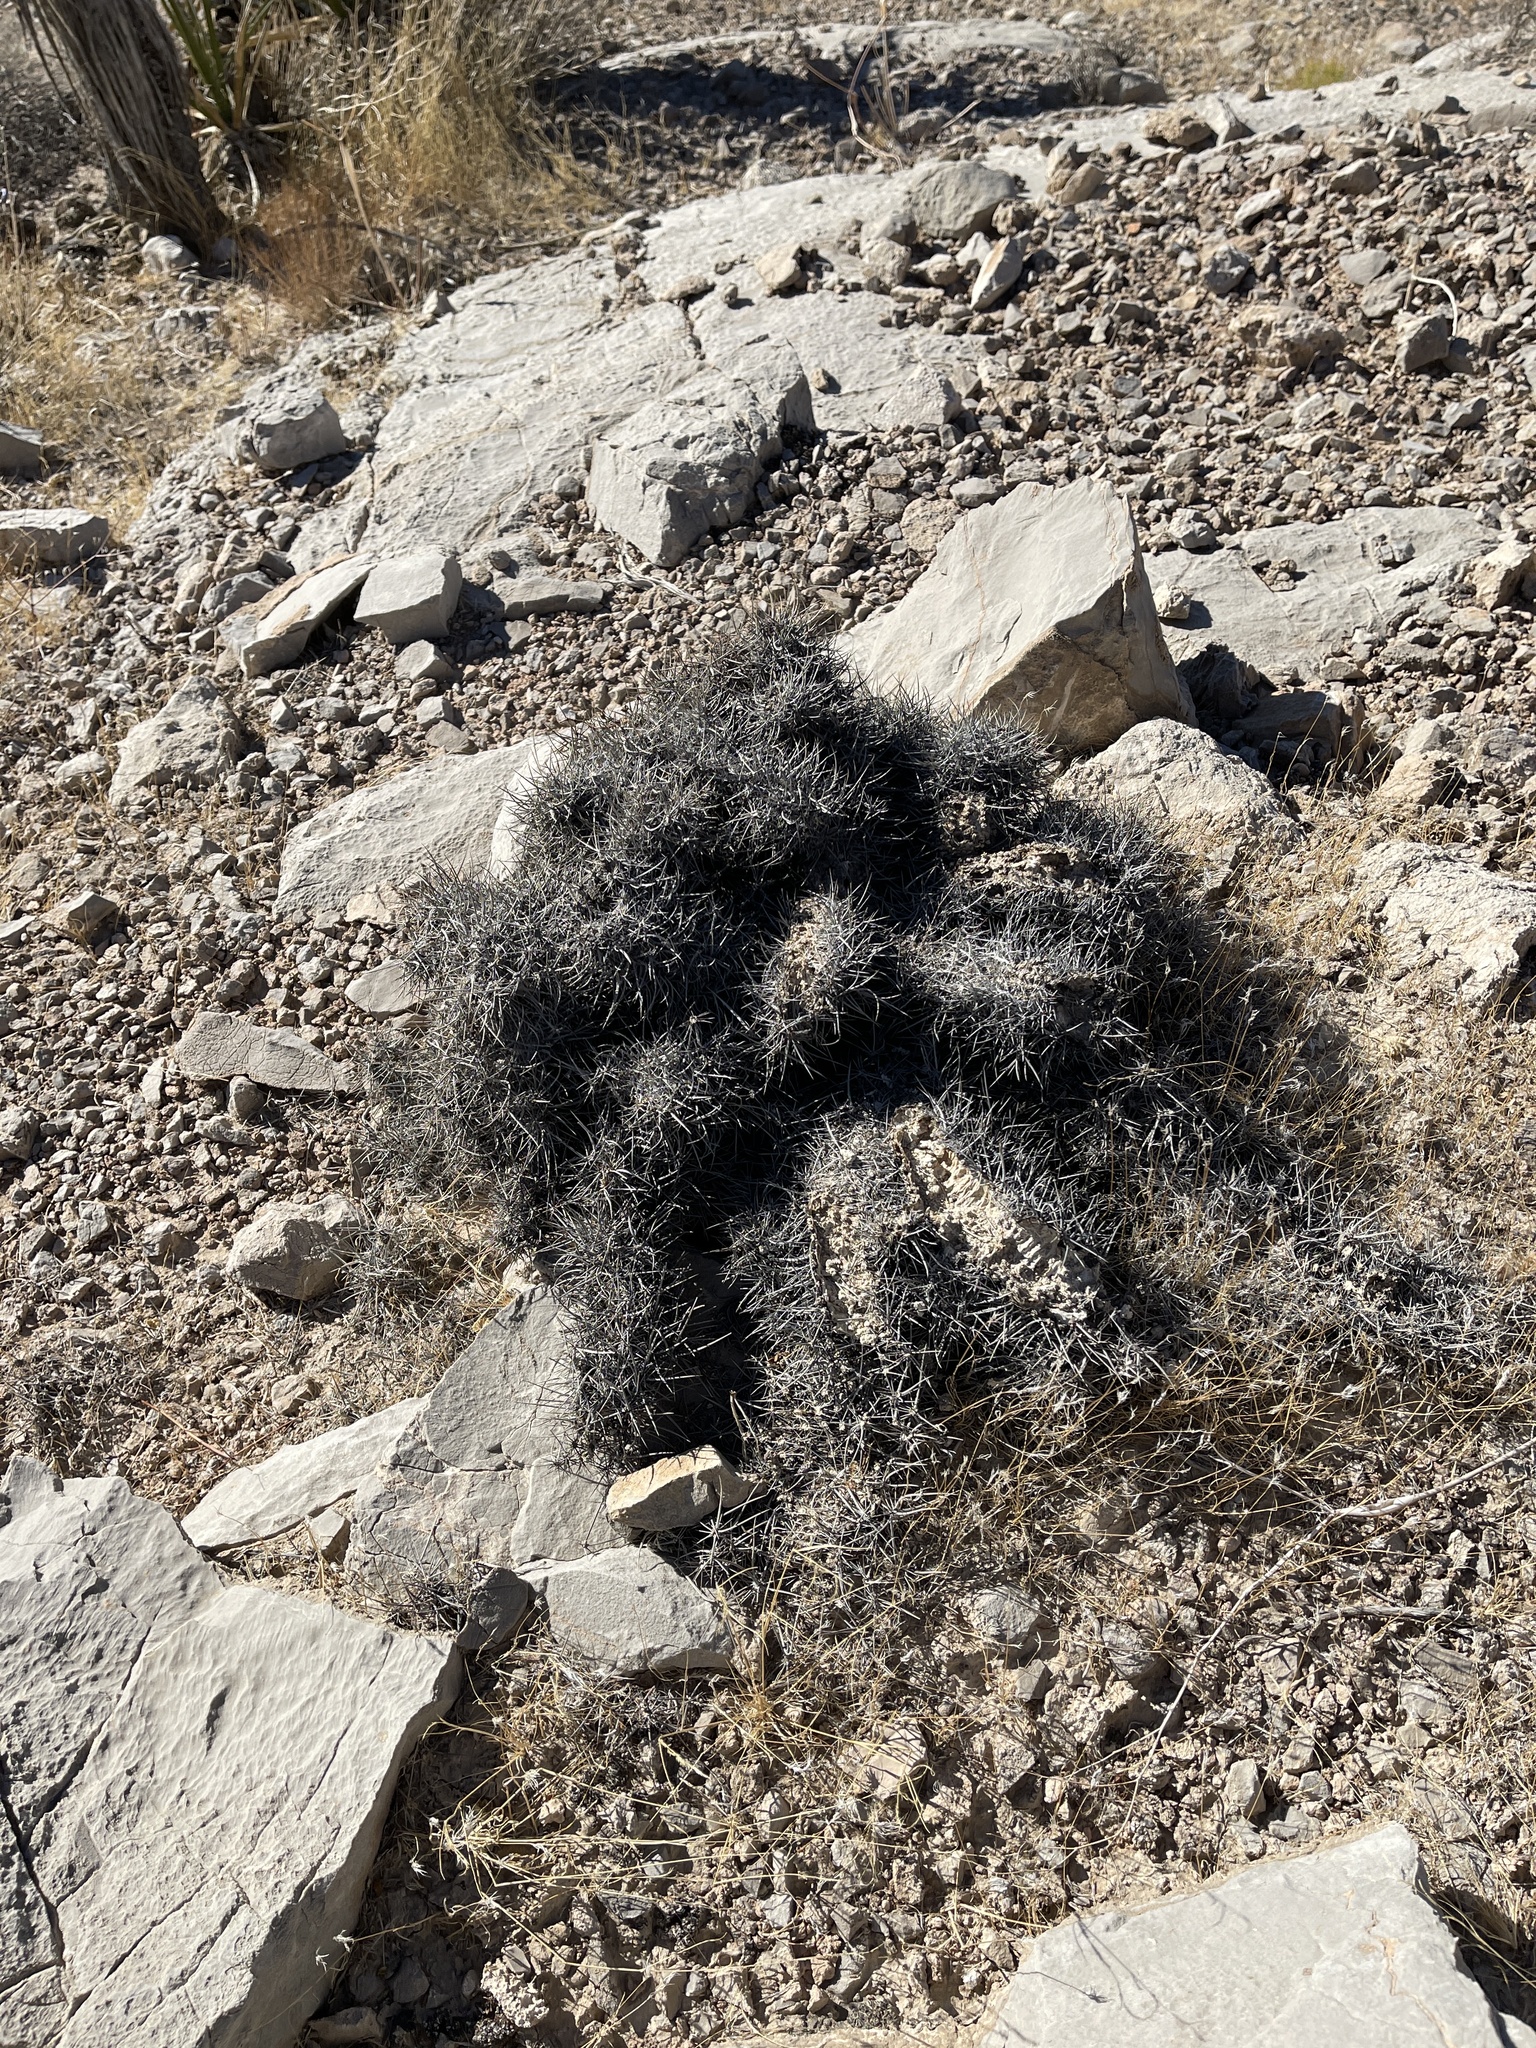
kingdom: Plantae
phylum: Tracheophyta
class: Magnoliopsida
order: Caryophyllales
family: Cactaceae
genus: Echinocactus
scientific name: Echinocactus polycephalus
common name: Cottontop cactus
